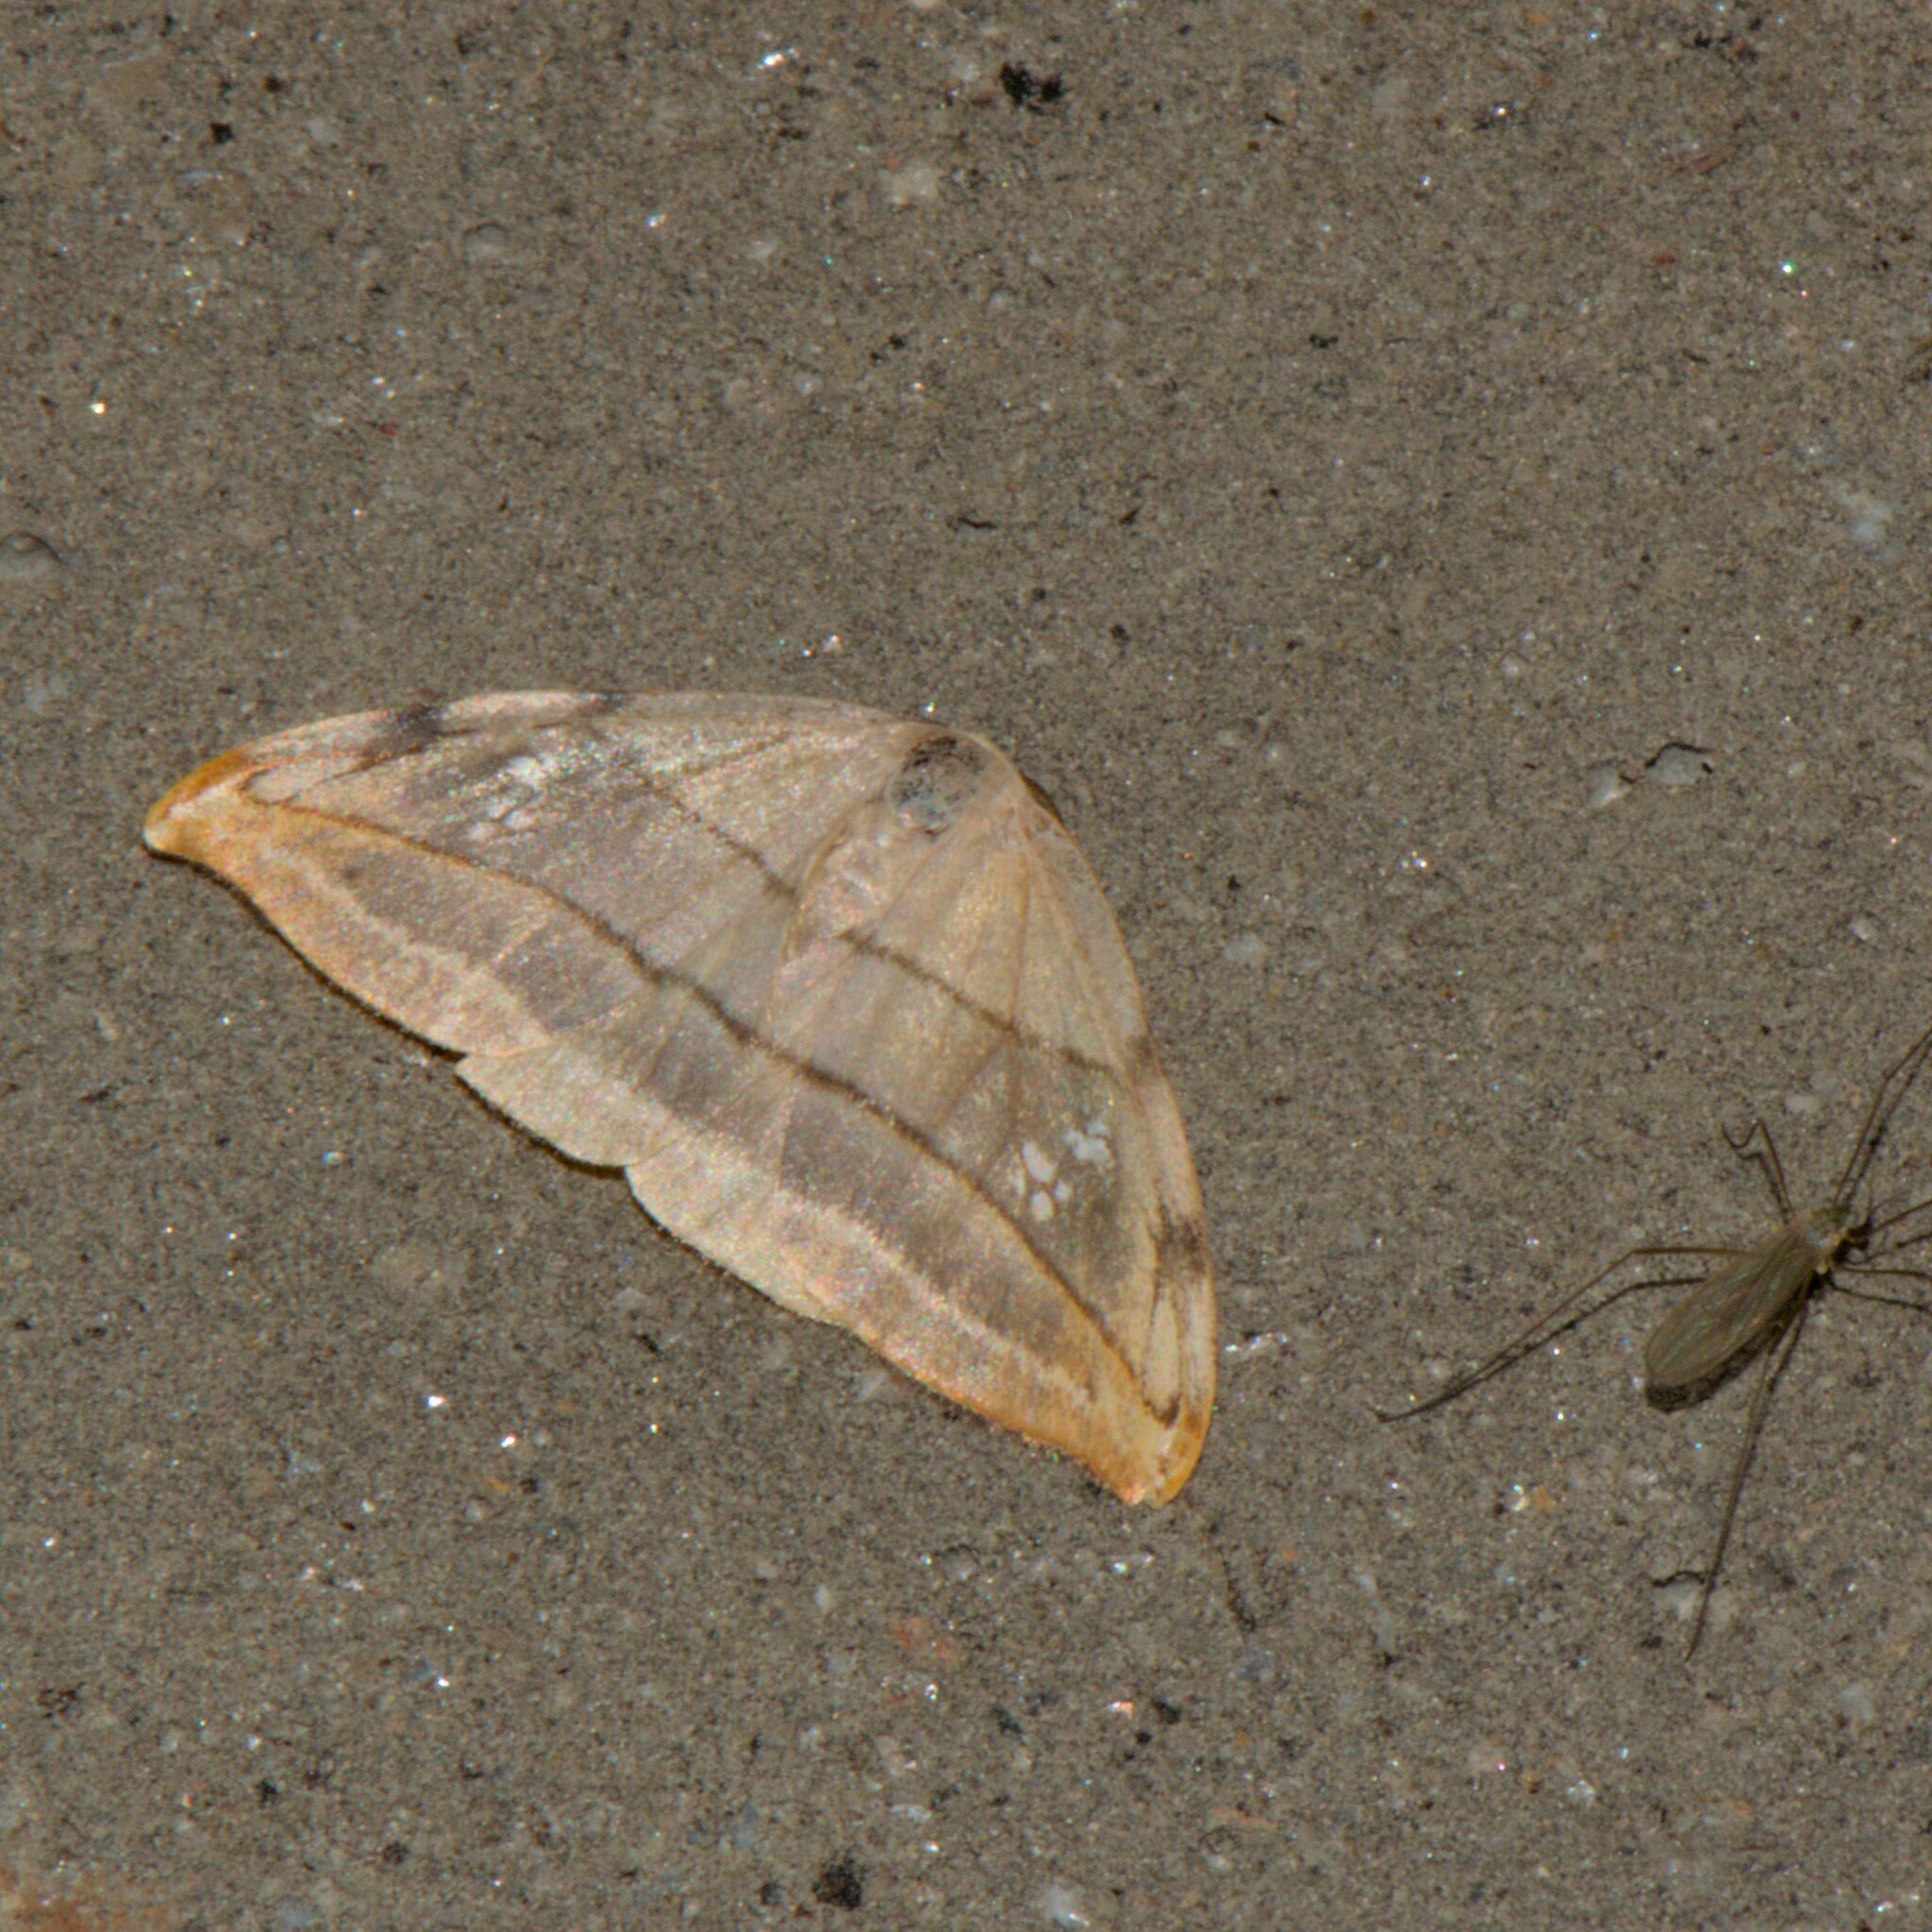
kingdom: Animalia
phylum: Arthropoda
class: Insecta
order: Lepidoptera
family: Drepanidae
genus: Nordstromia
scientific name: Nordstromia vira
